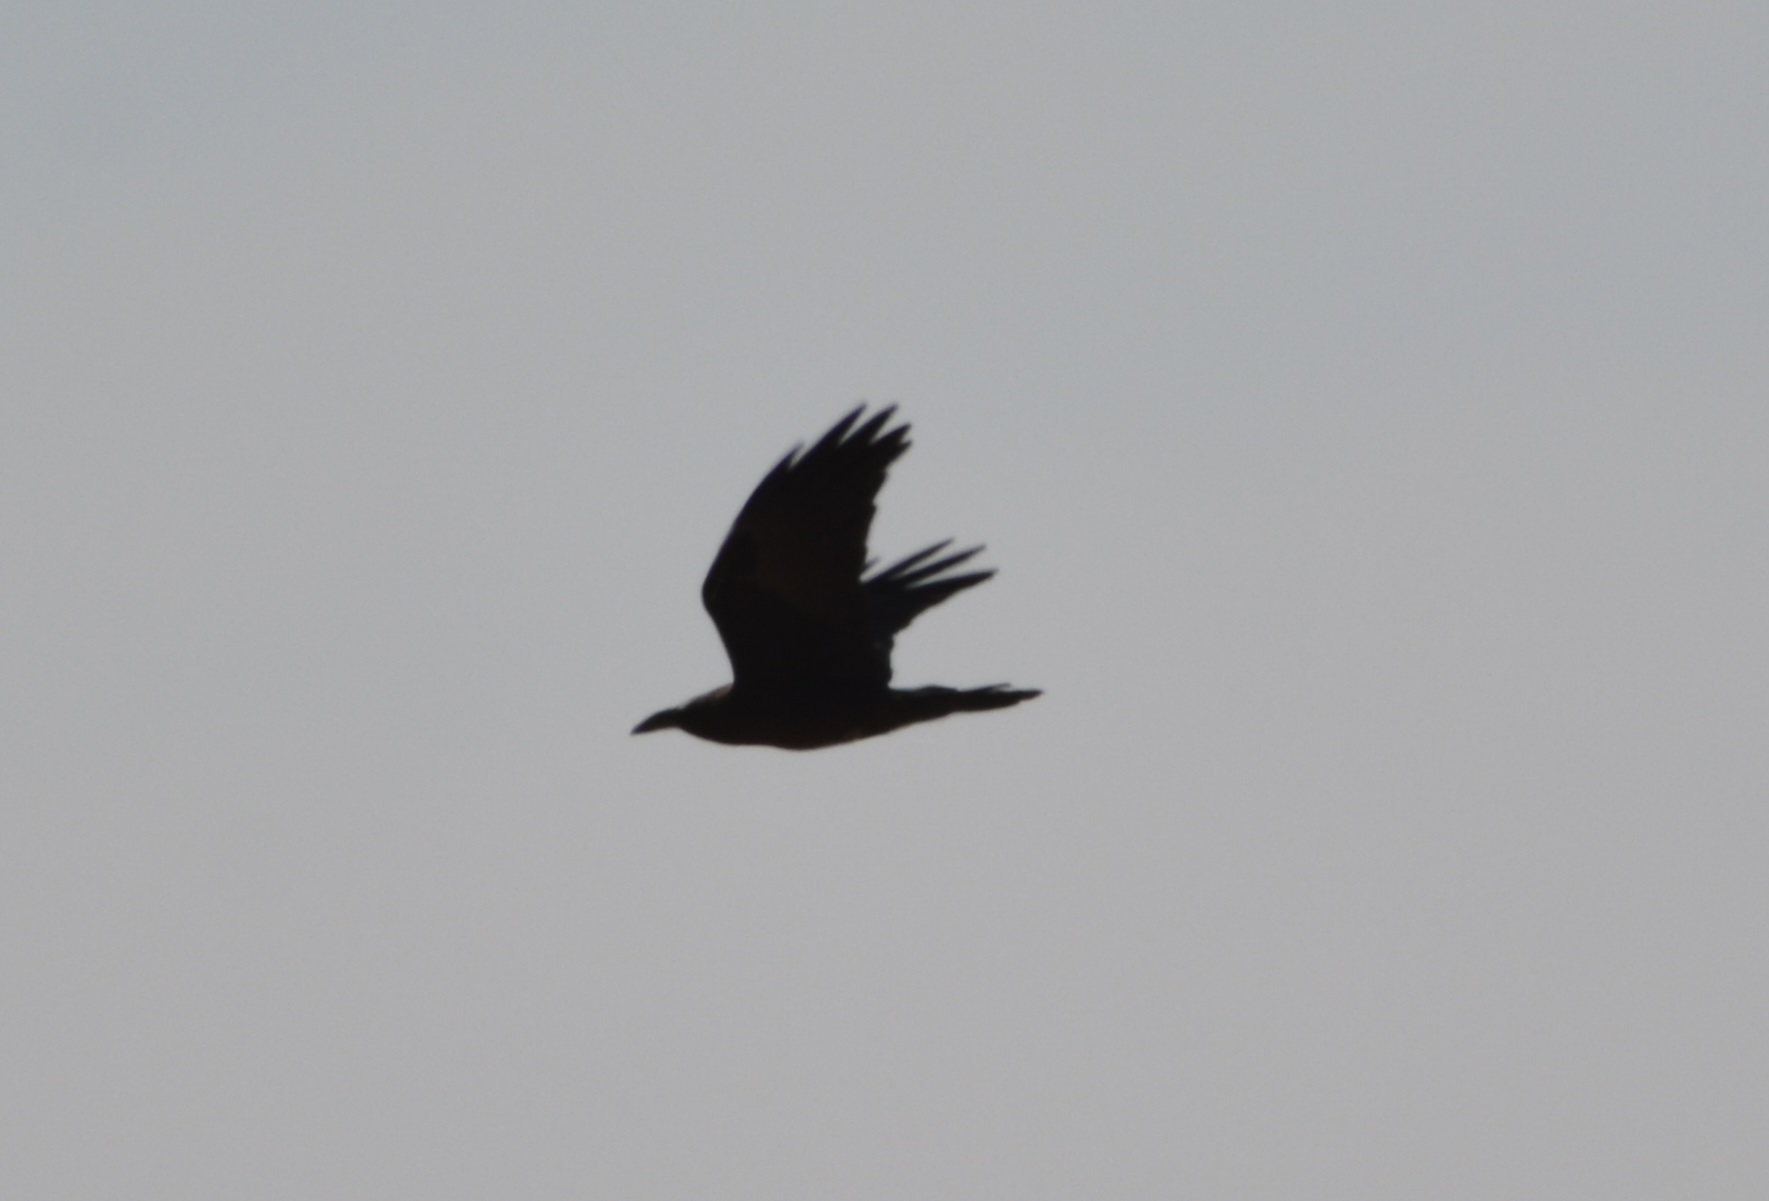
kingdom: Animalia
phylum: Chordata
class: Aves
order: Passeriformes
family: Corvidae
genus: Corvus
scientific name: Corvus ruficollis
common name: Brown-necked raven
